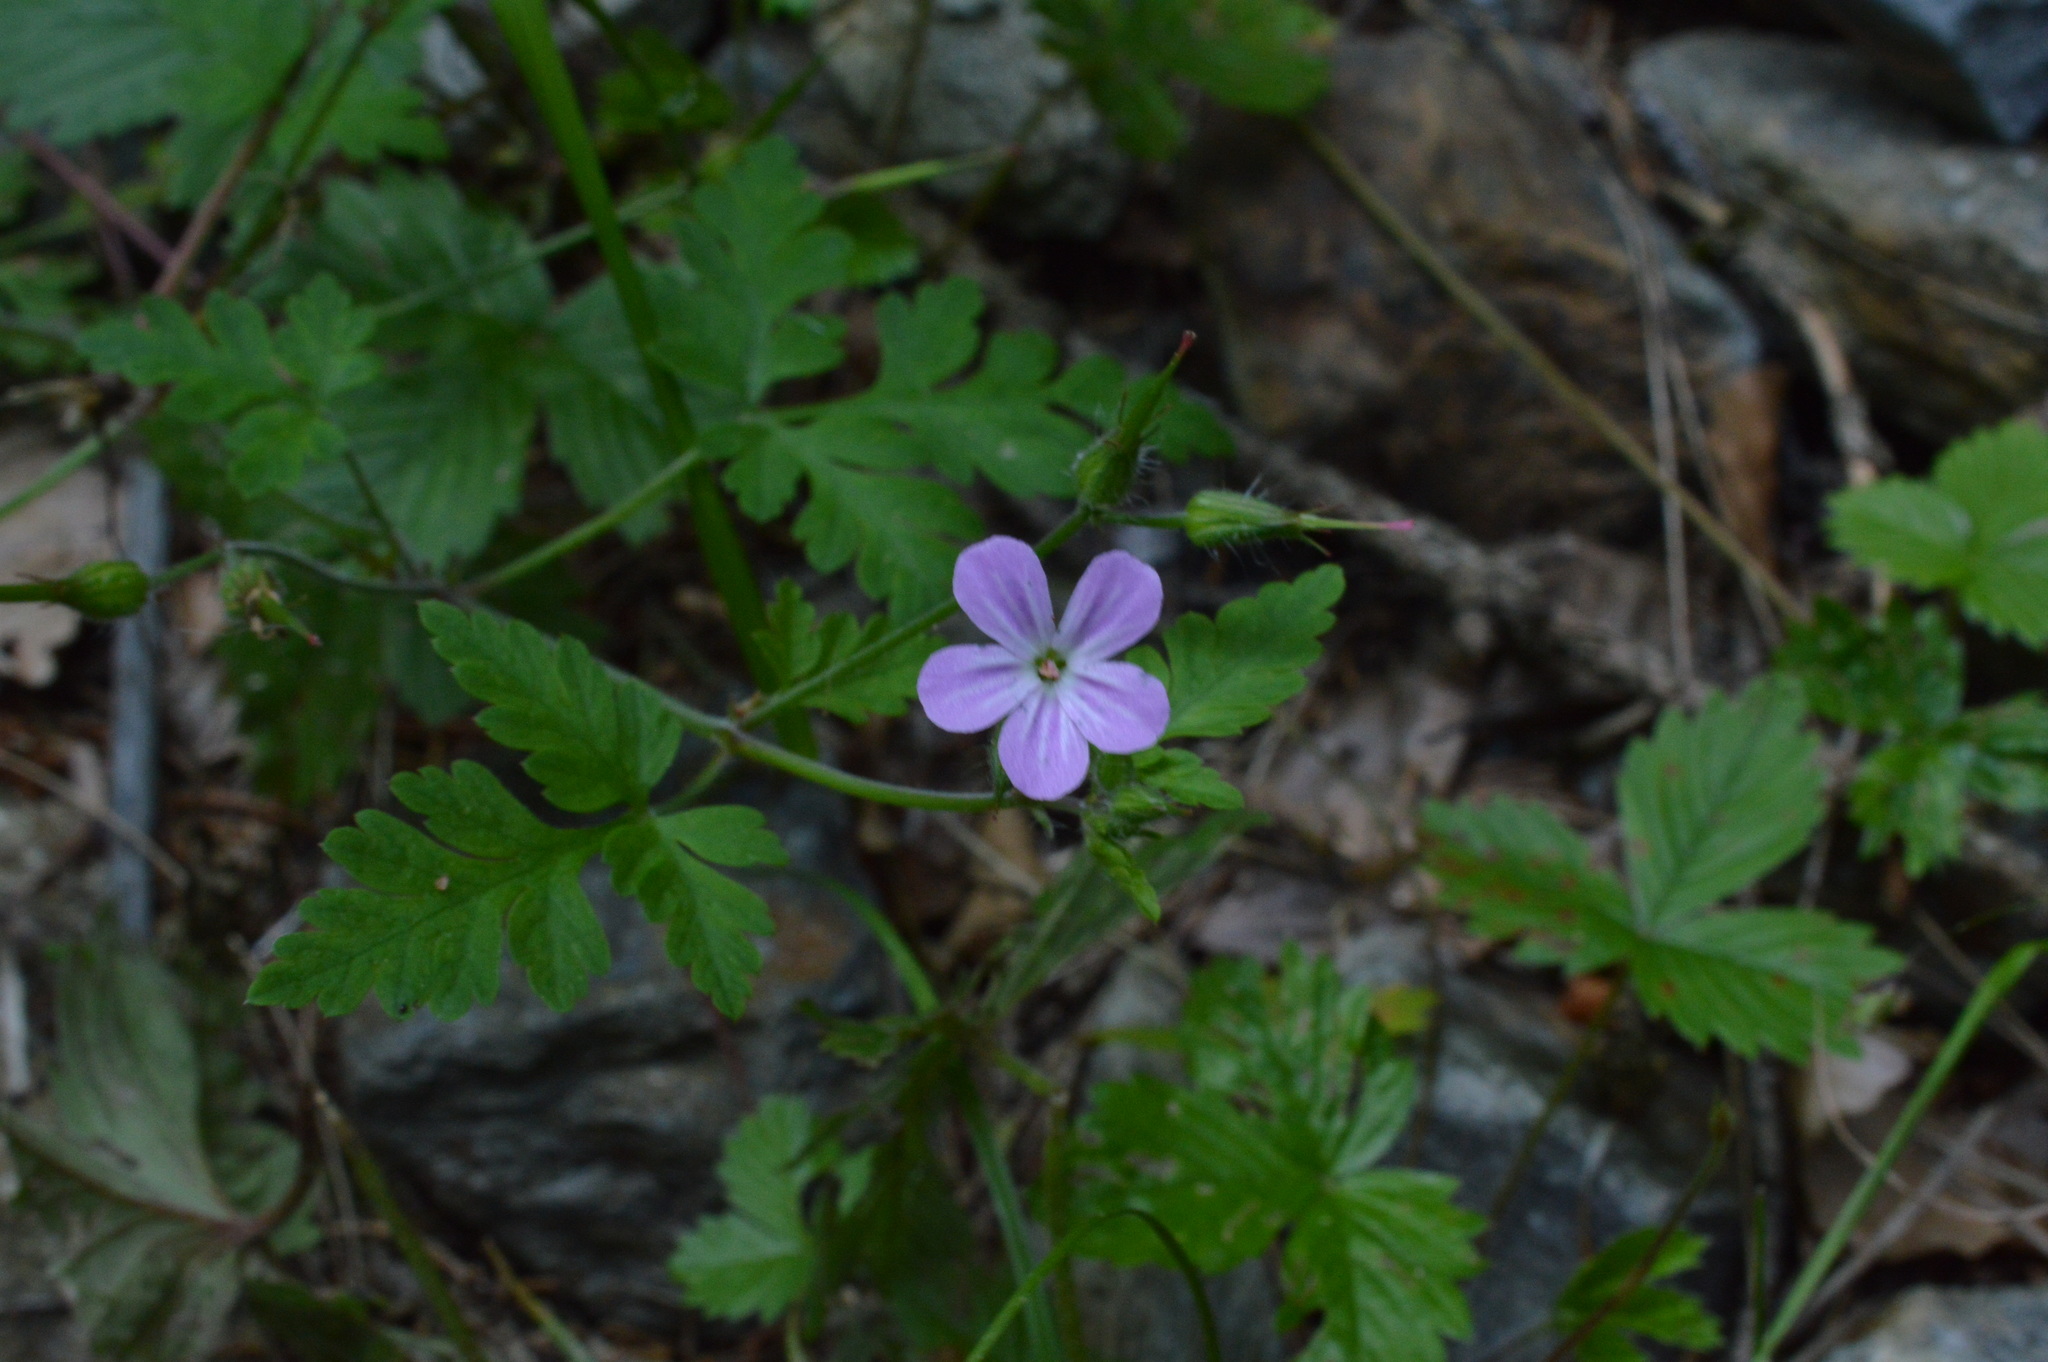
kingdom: Plantae
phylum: Tracheophyta
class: Magnoliopsida
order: Geraniales
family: Geraniaceae
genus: Geranium
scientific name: Geranium robertianum
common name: Herb-robert
